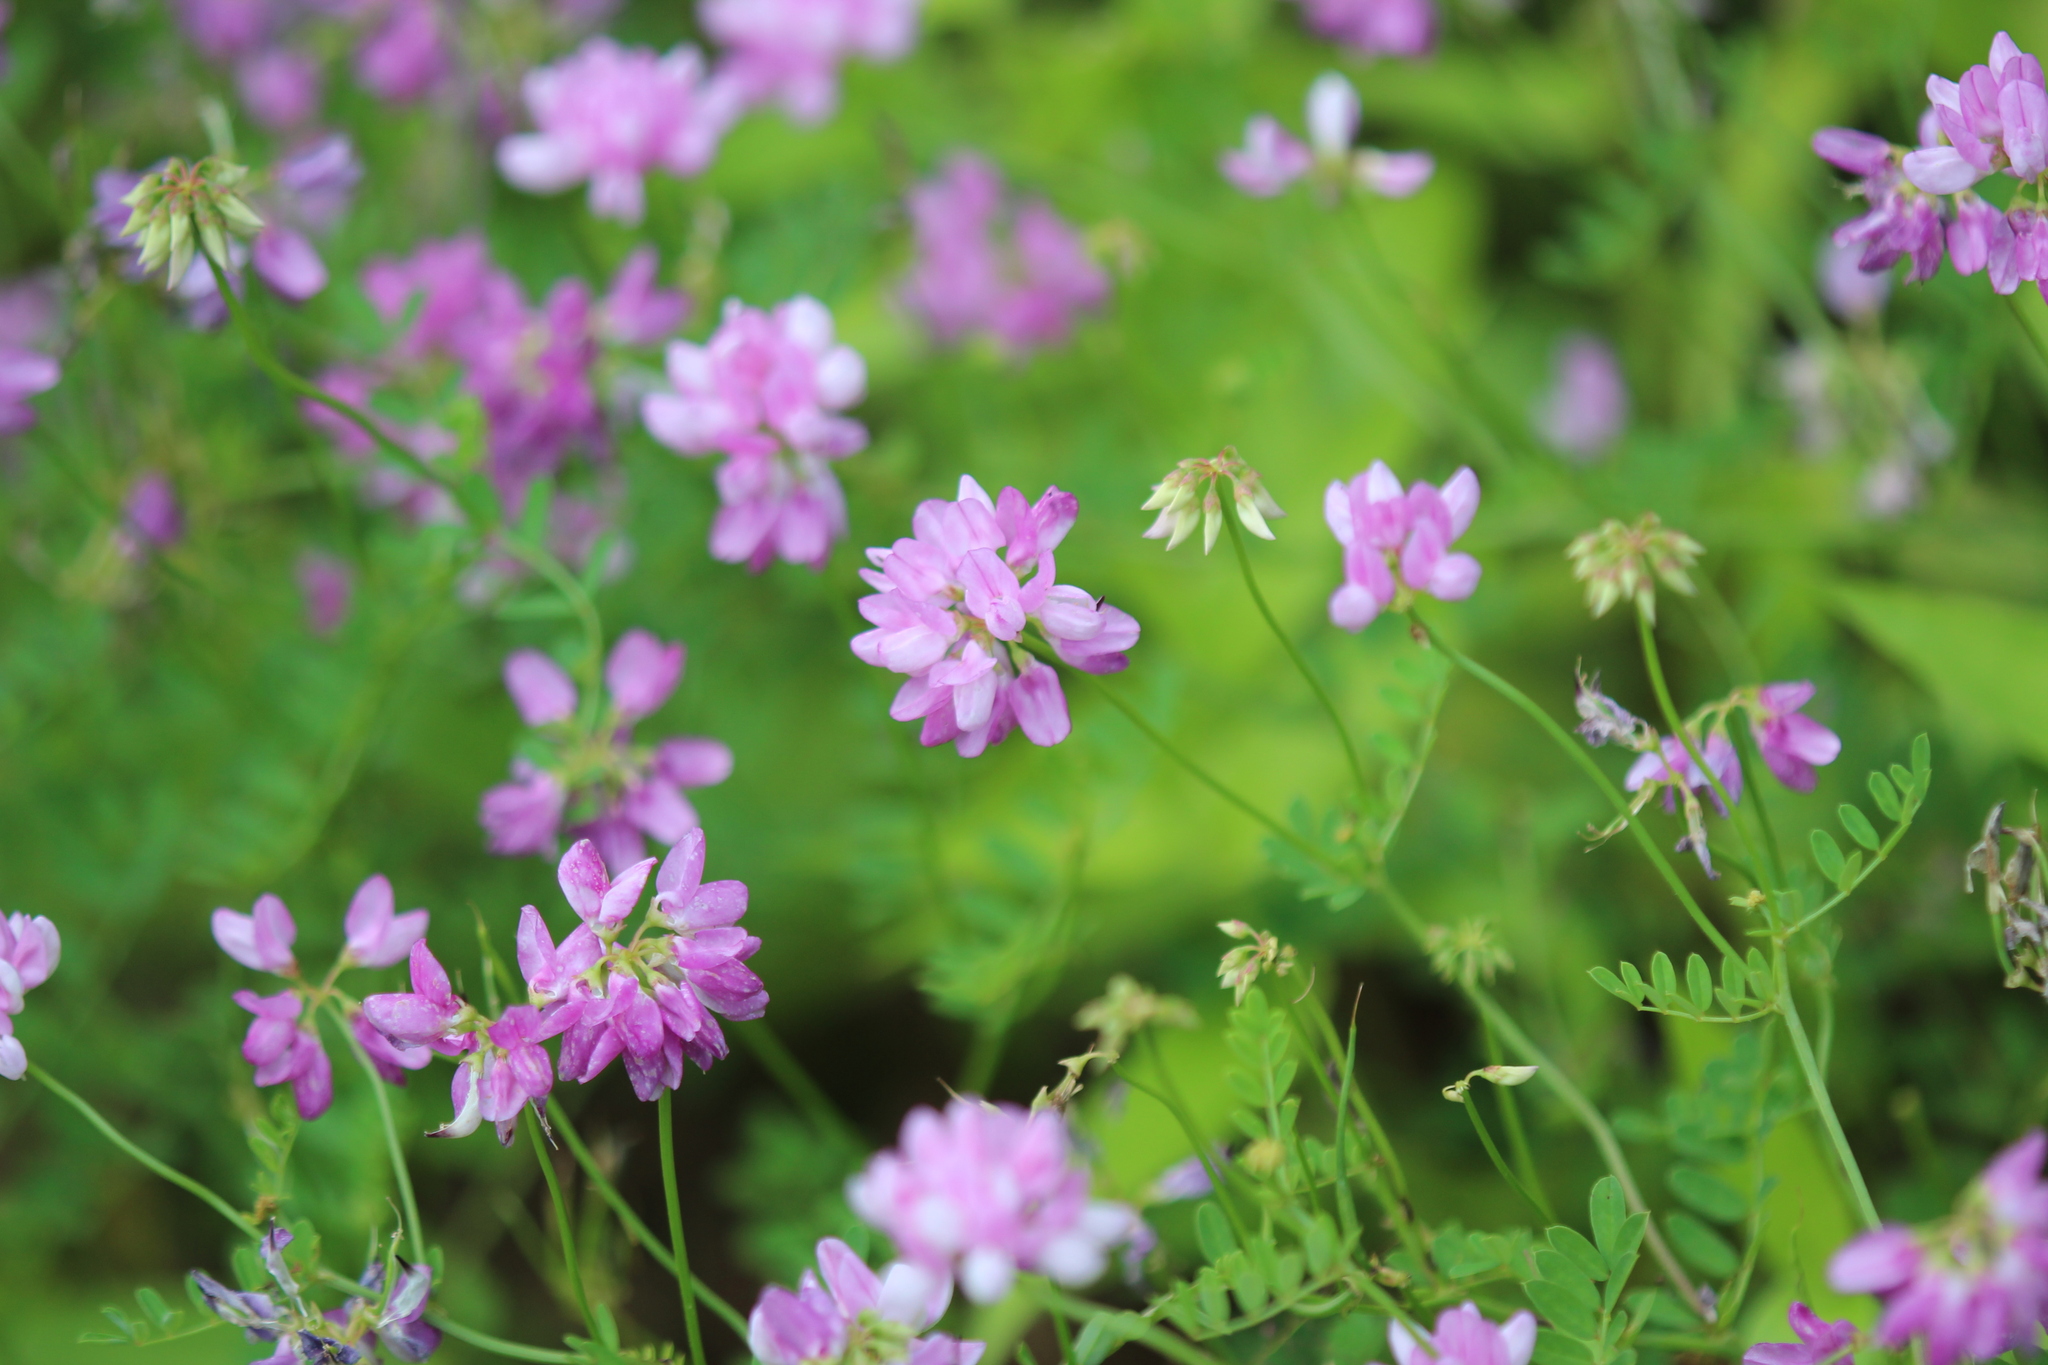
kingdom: Plantae
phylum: Tracheophyta
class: Magnoliopsida
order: Fabales
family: Fabaceae
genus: Coronilla
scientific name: Coronilla varia
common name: Crownvetch
